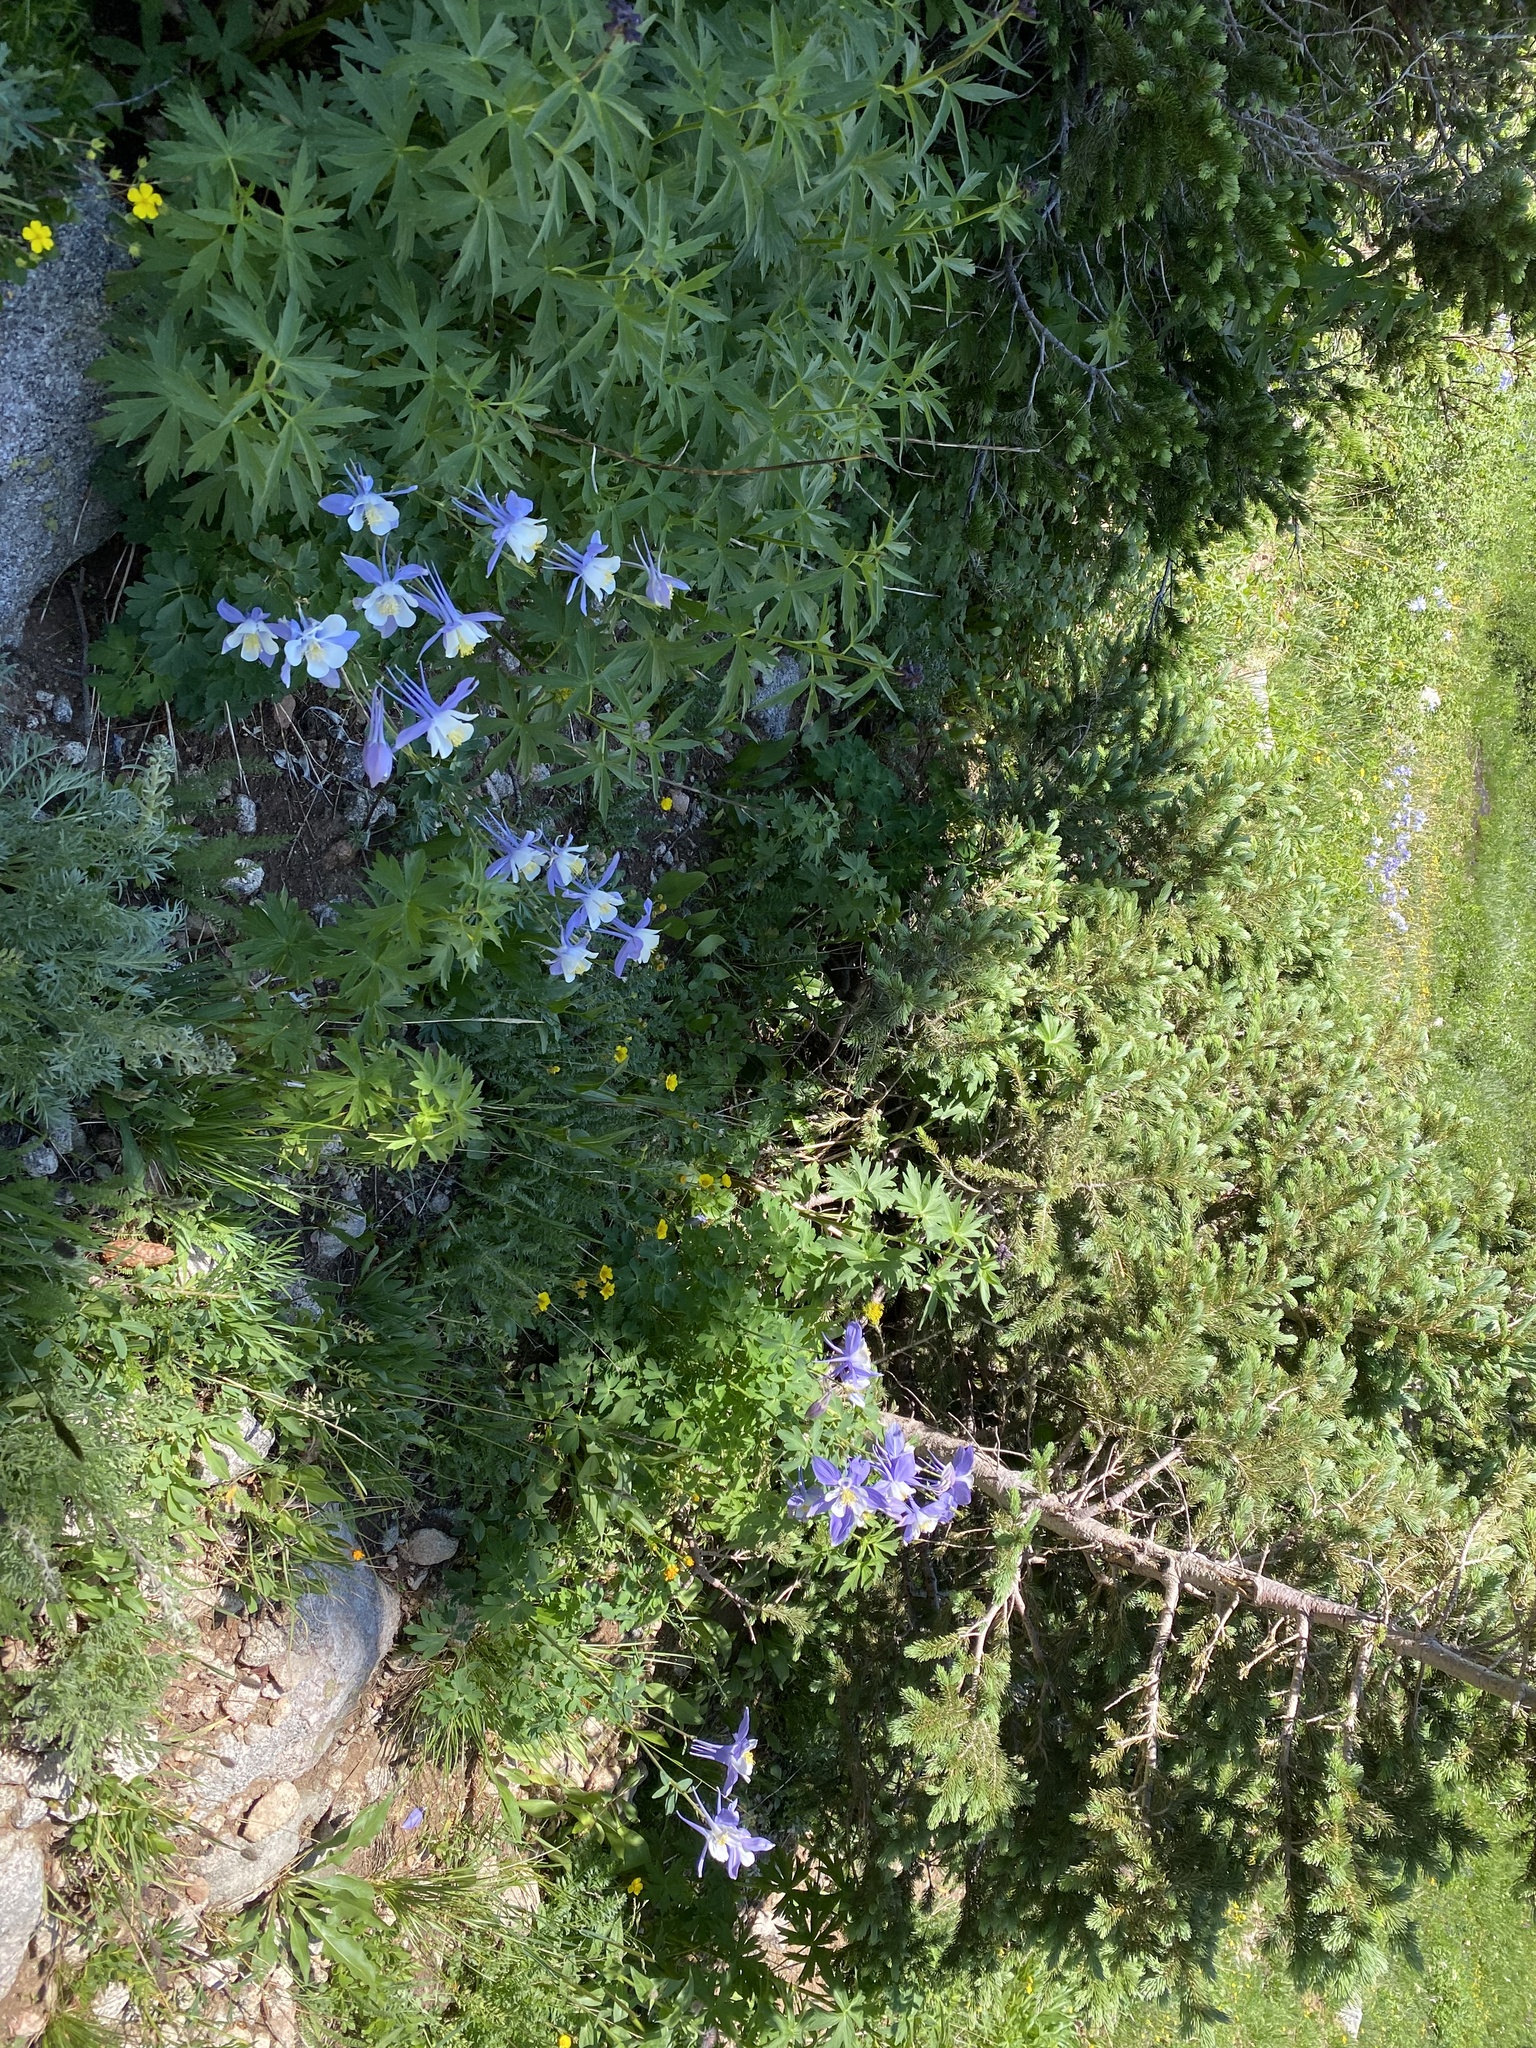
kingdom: Plantae
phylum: Tracheophyta
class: Magnoliopsida
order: Ranunculales
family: Ranunculaceae
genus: Aquilegia
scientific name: Aquilegia coerulea
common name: Rocky mountain columbine
